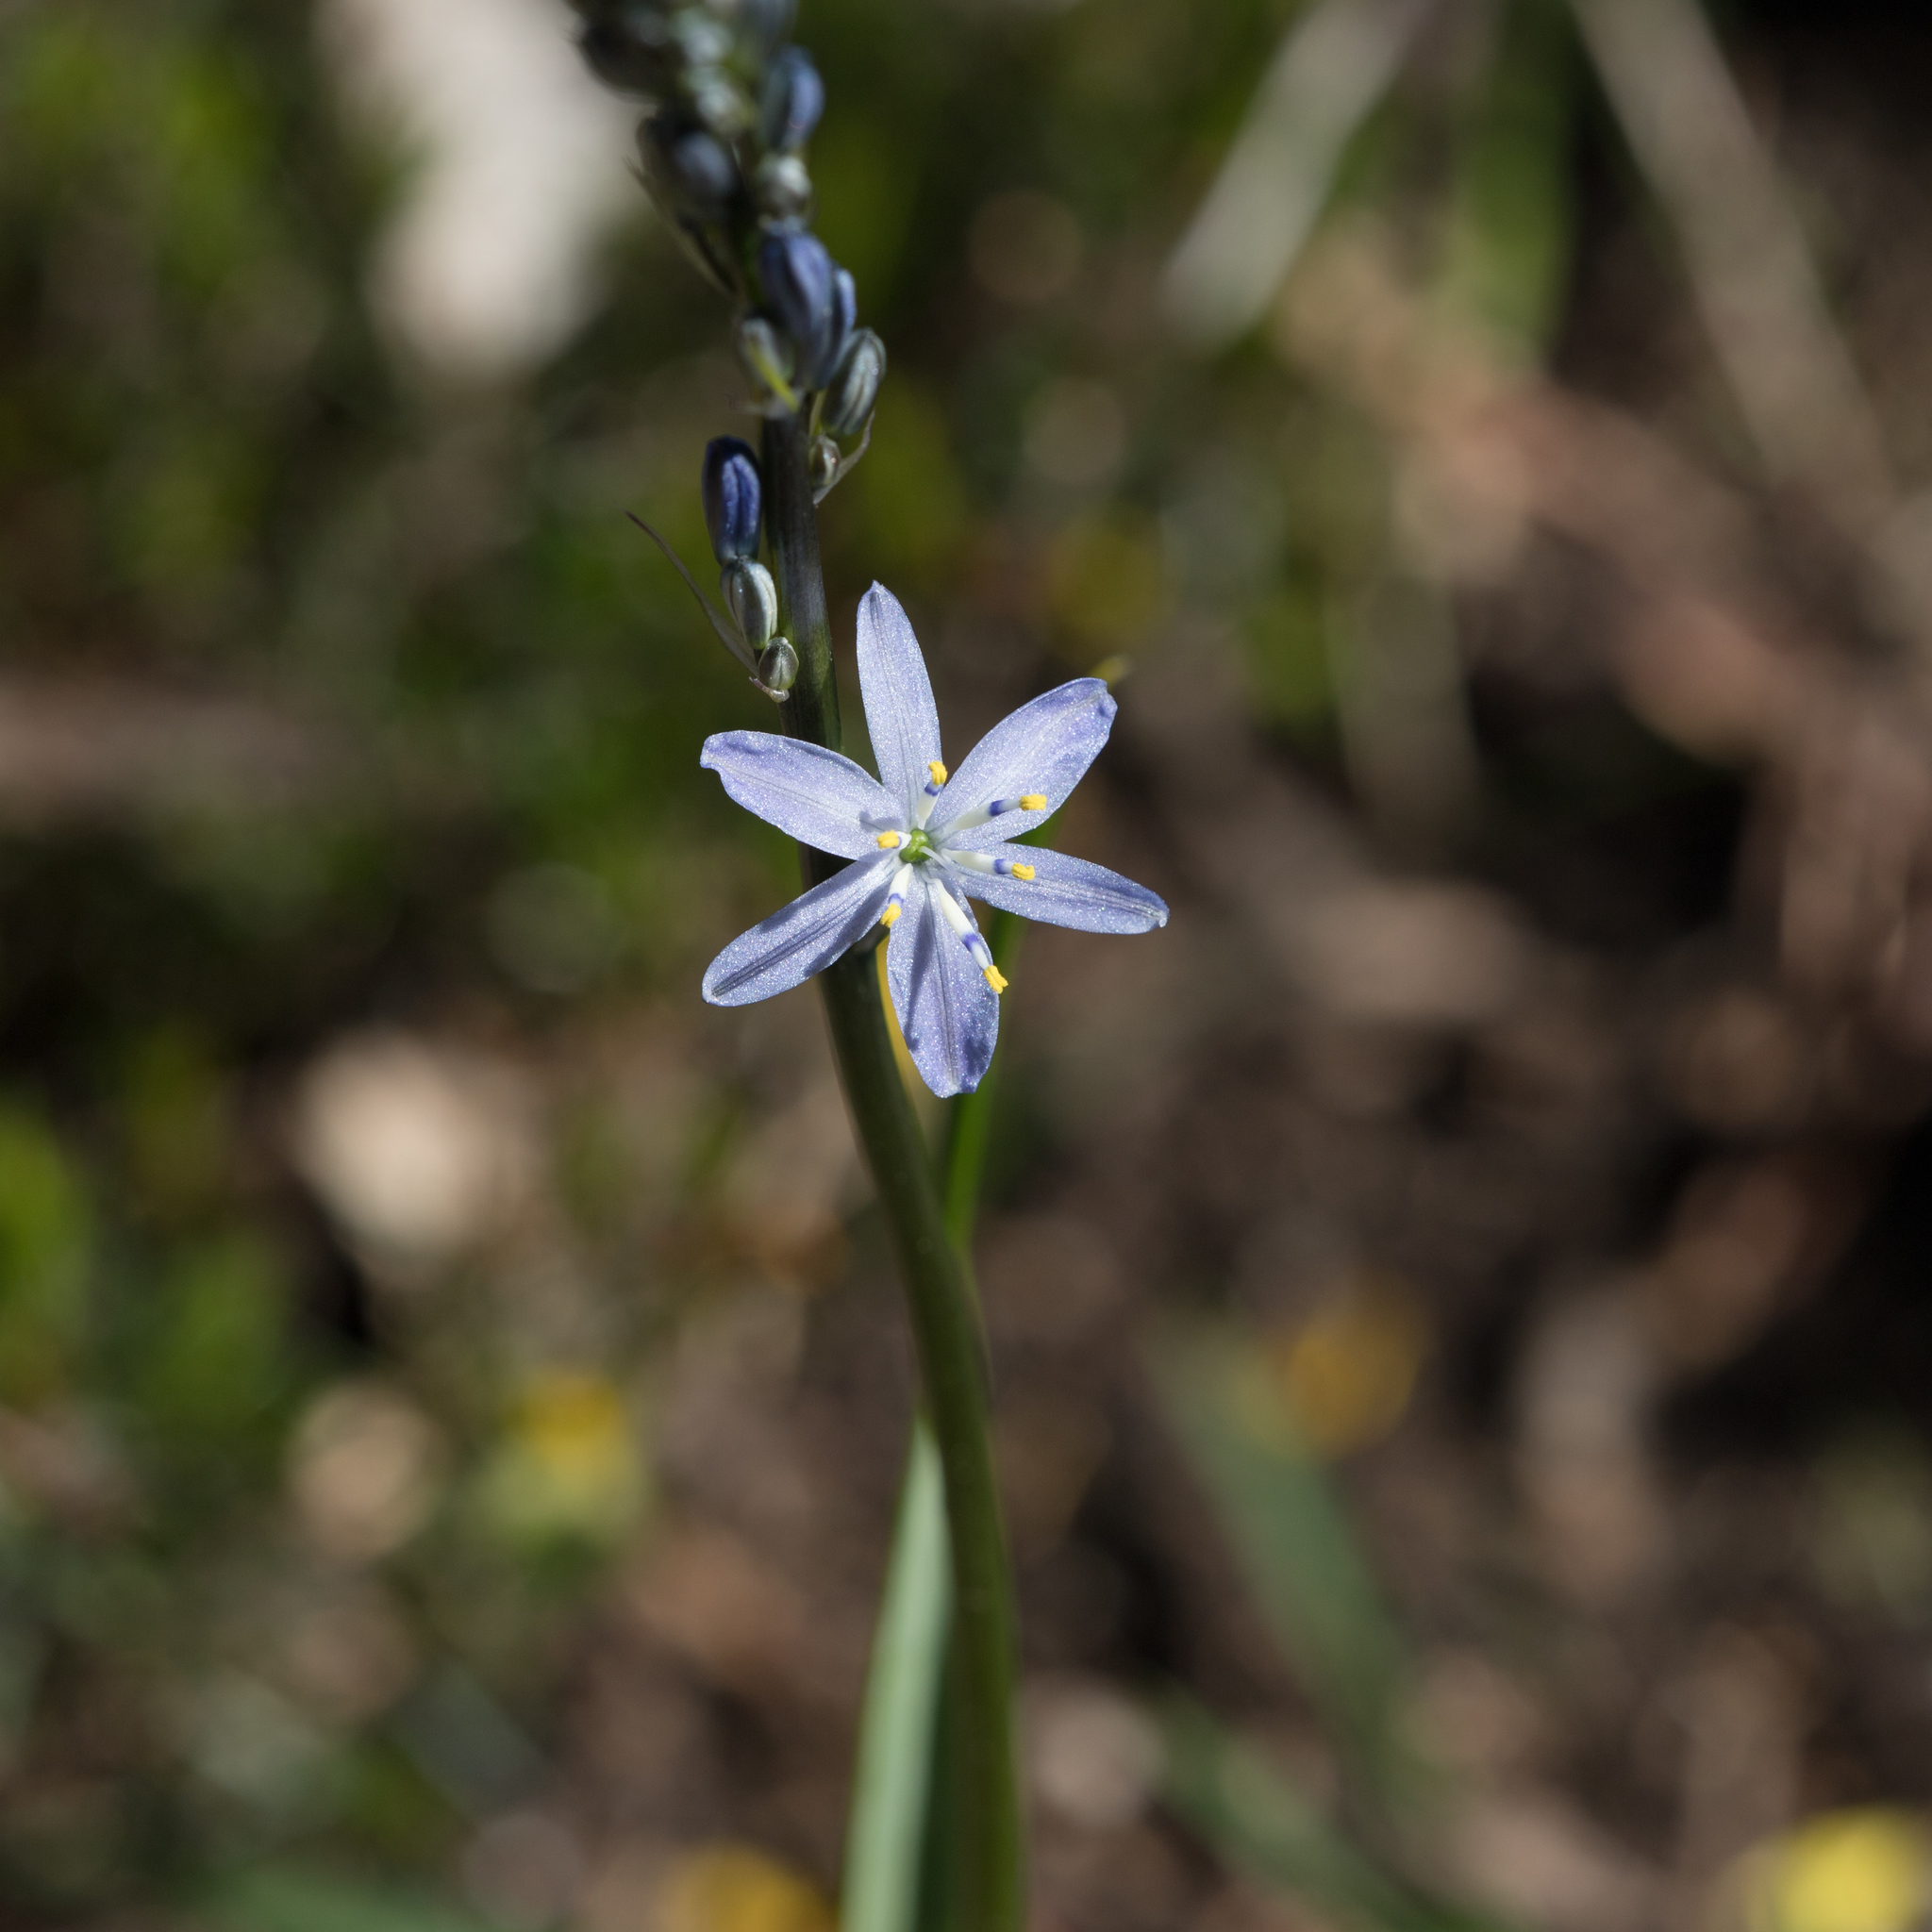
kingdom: Plantae
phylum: Tracheophyta
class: Liliopsida
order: Asparagales
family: Asphodelaceae
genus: Caesia
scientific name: Caesia calliantha
